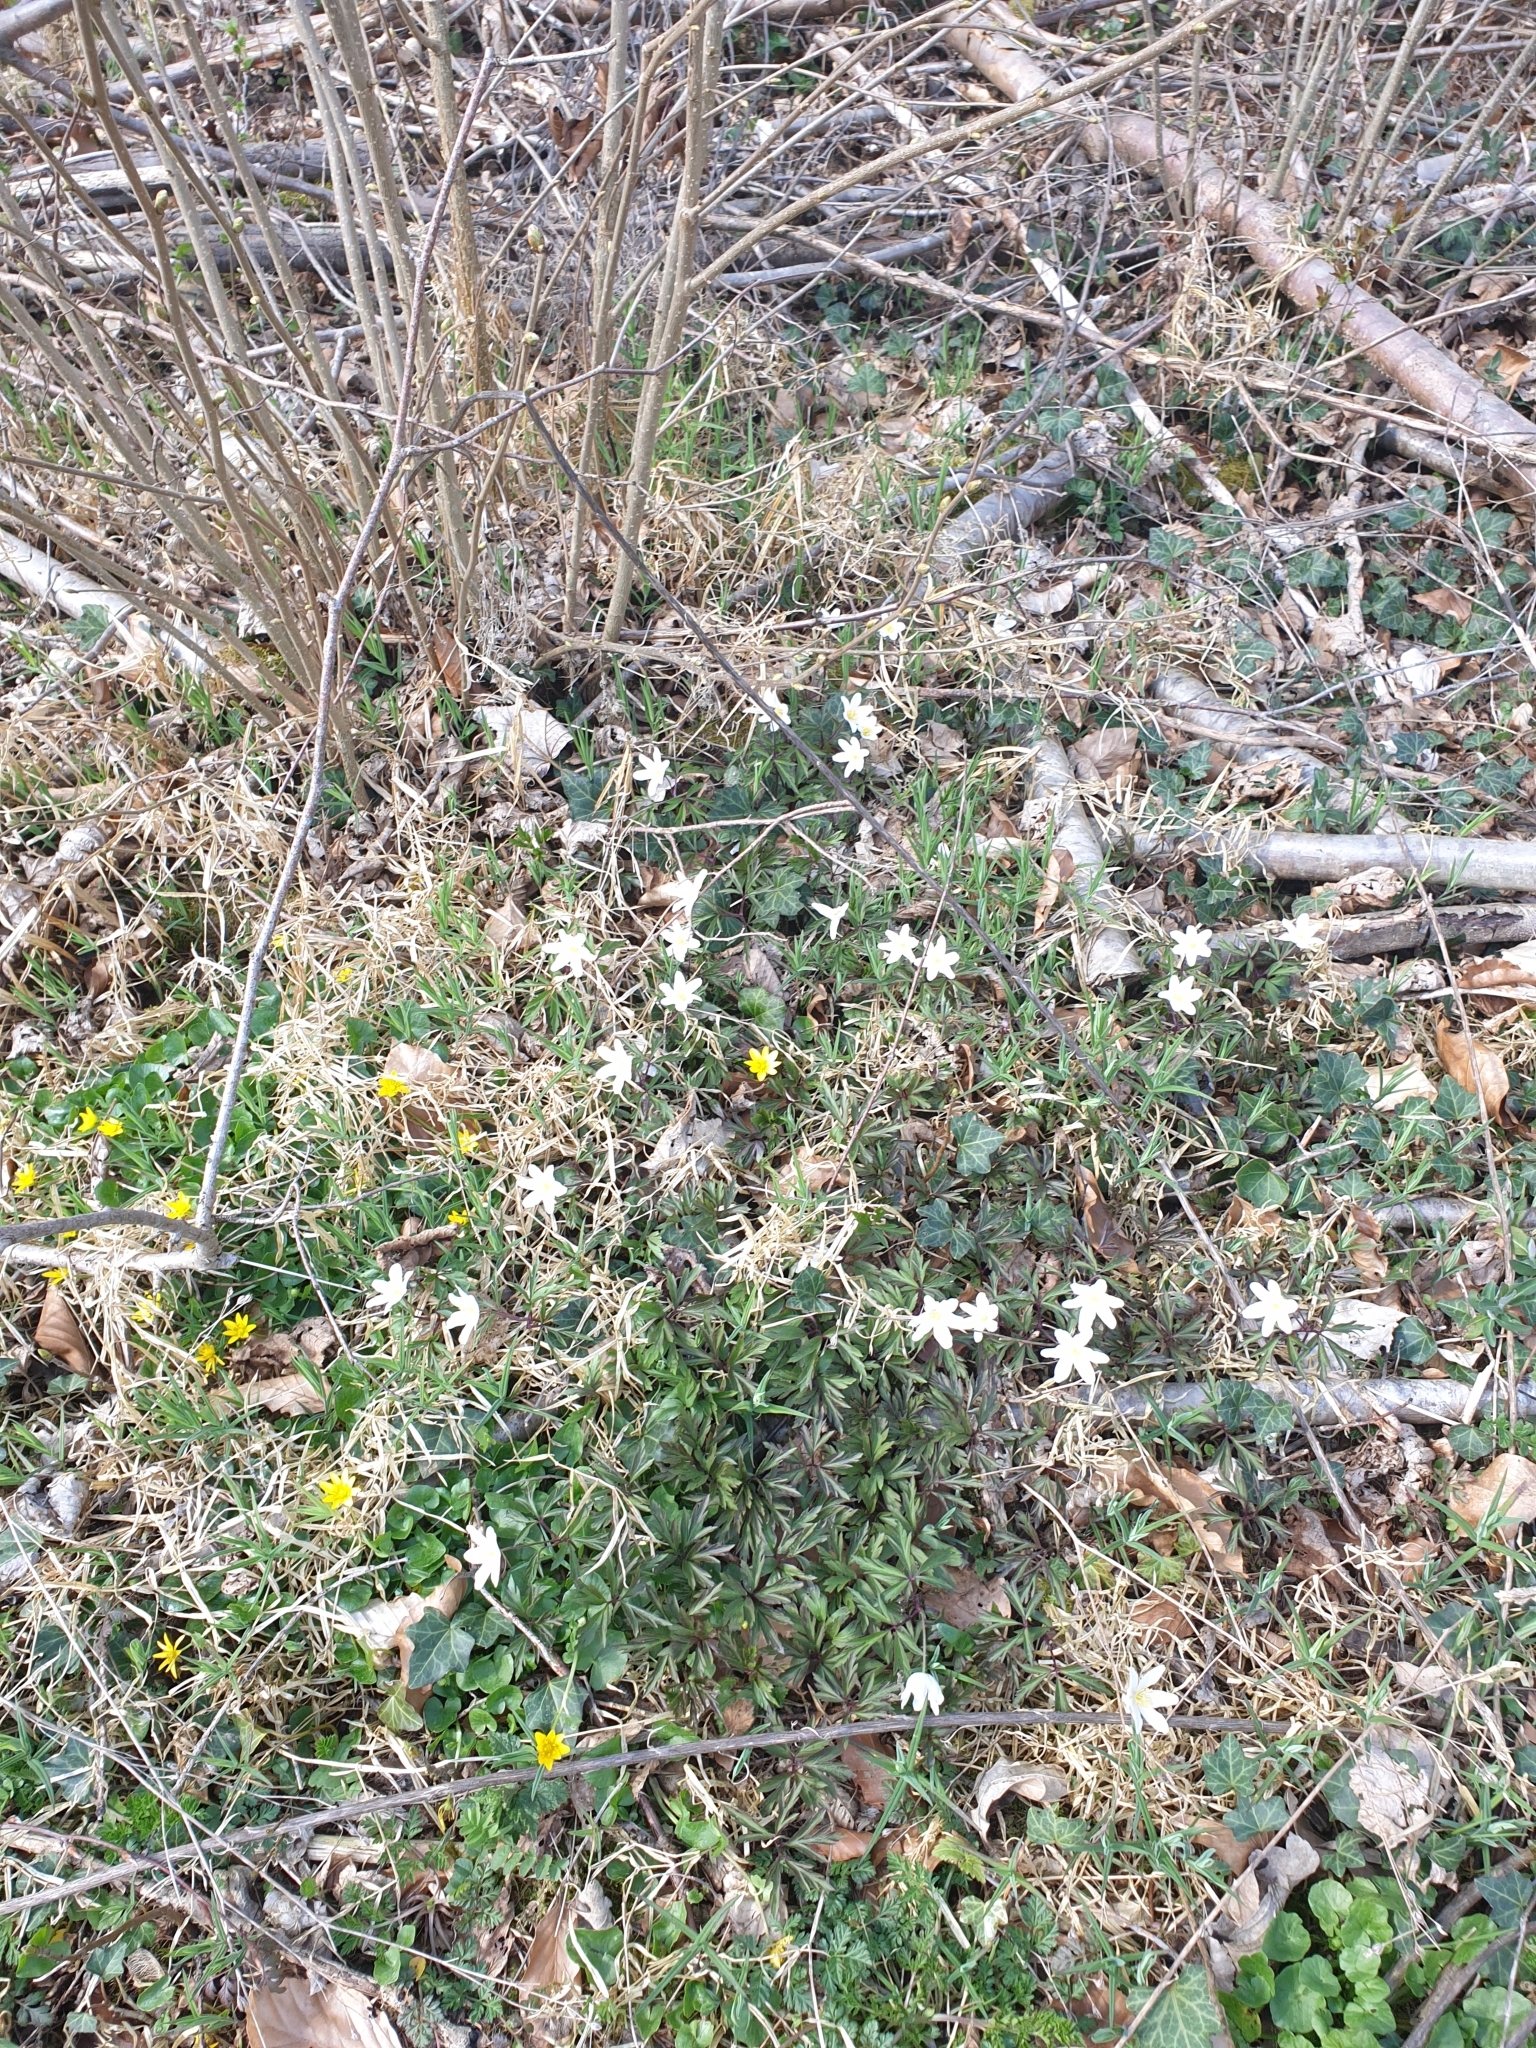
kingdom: Plantae
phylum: Tracheophyta
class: Magnoliopsida
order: Ranunculales
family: Ranunculaceae
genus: Anemone
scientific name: Anemone nemorosa
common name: Wood anemone
